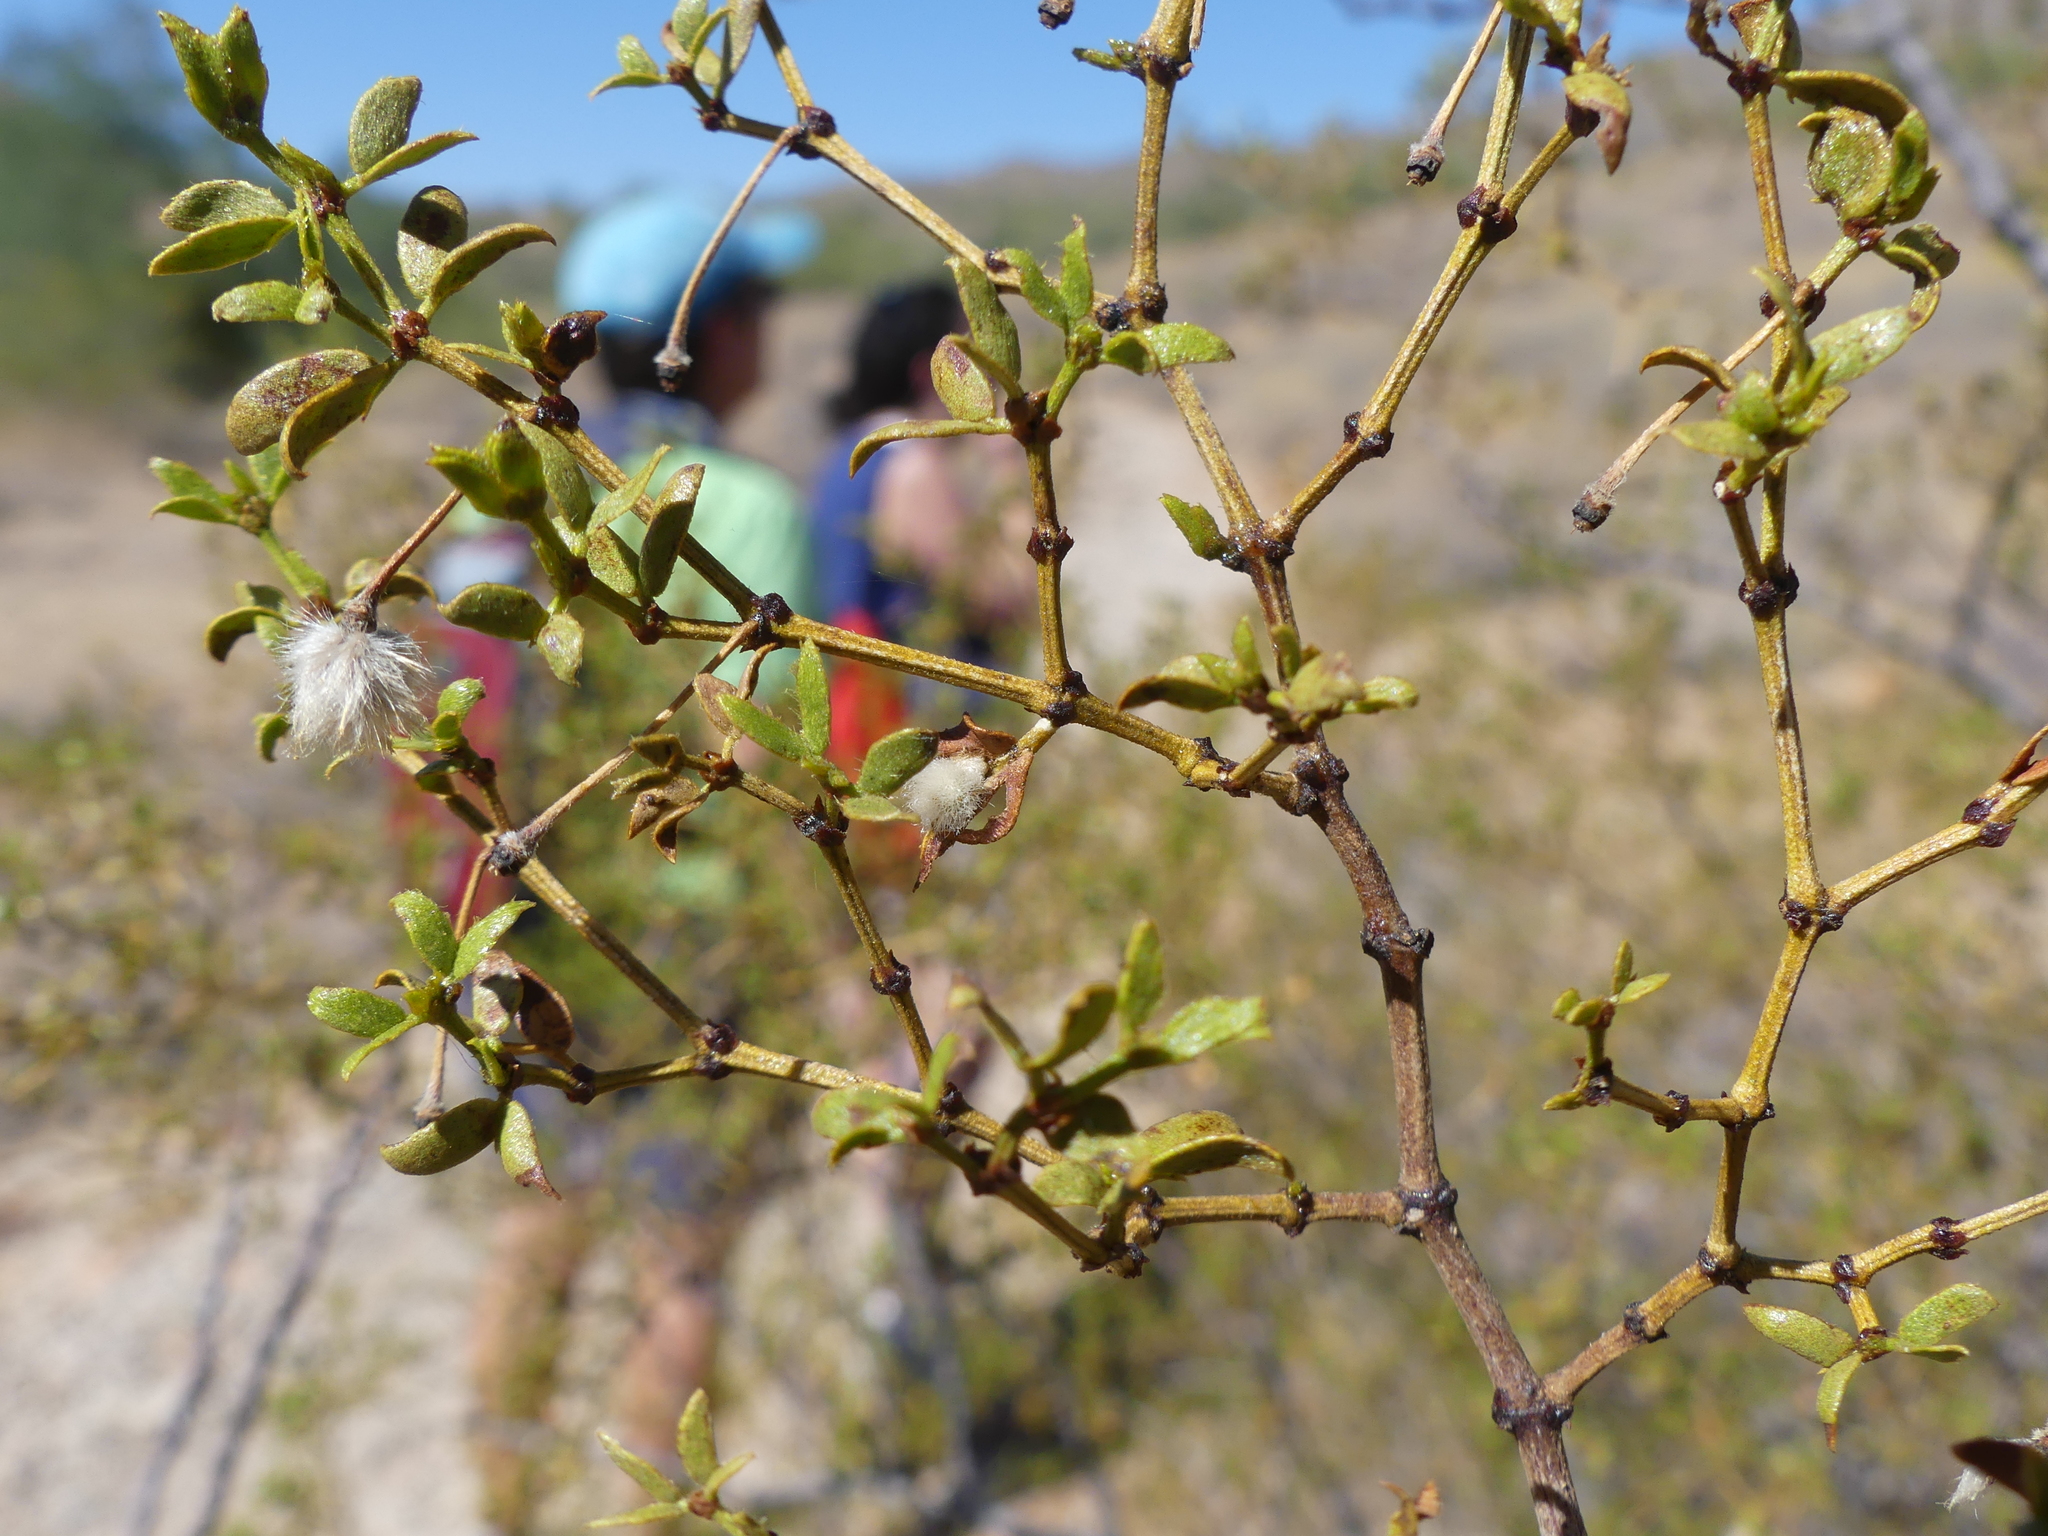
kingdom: Plantae
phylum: Tracheophyta
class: Magnoliopsida
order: Zygophyllales
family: Zygophyllaceae
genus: Larrea
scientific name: Larrea tridentata
